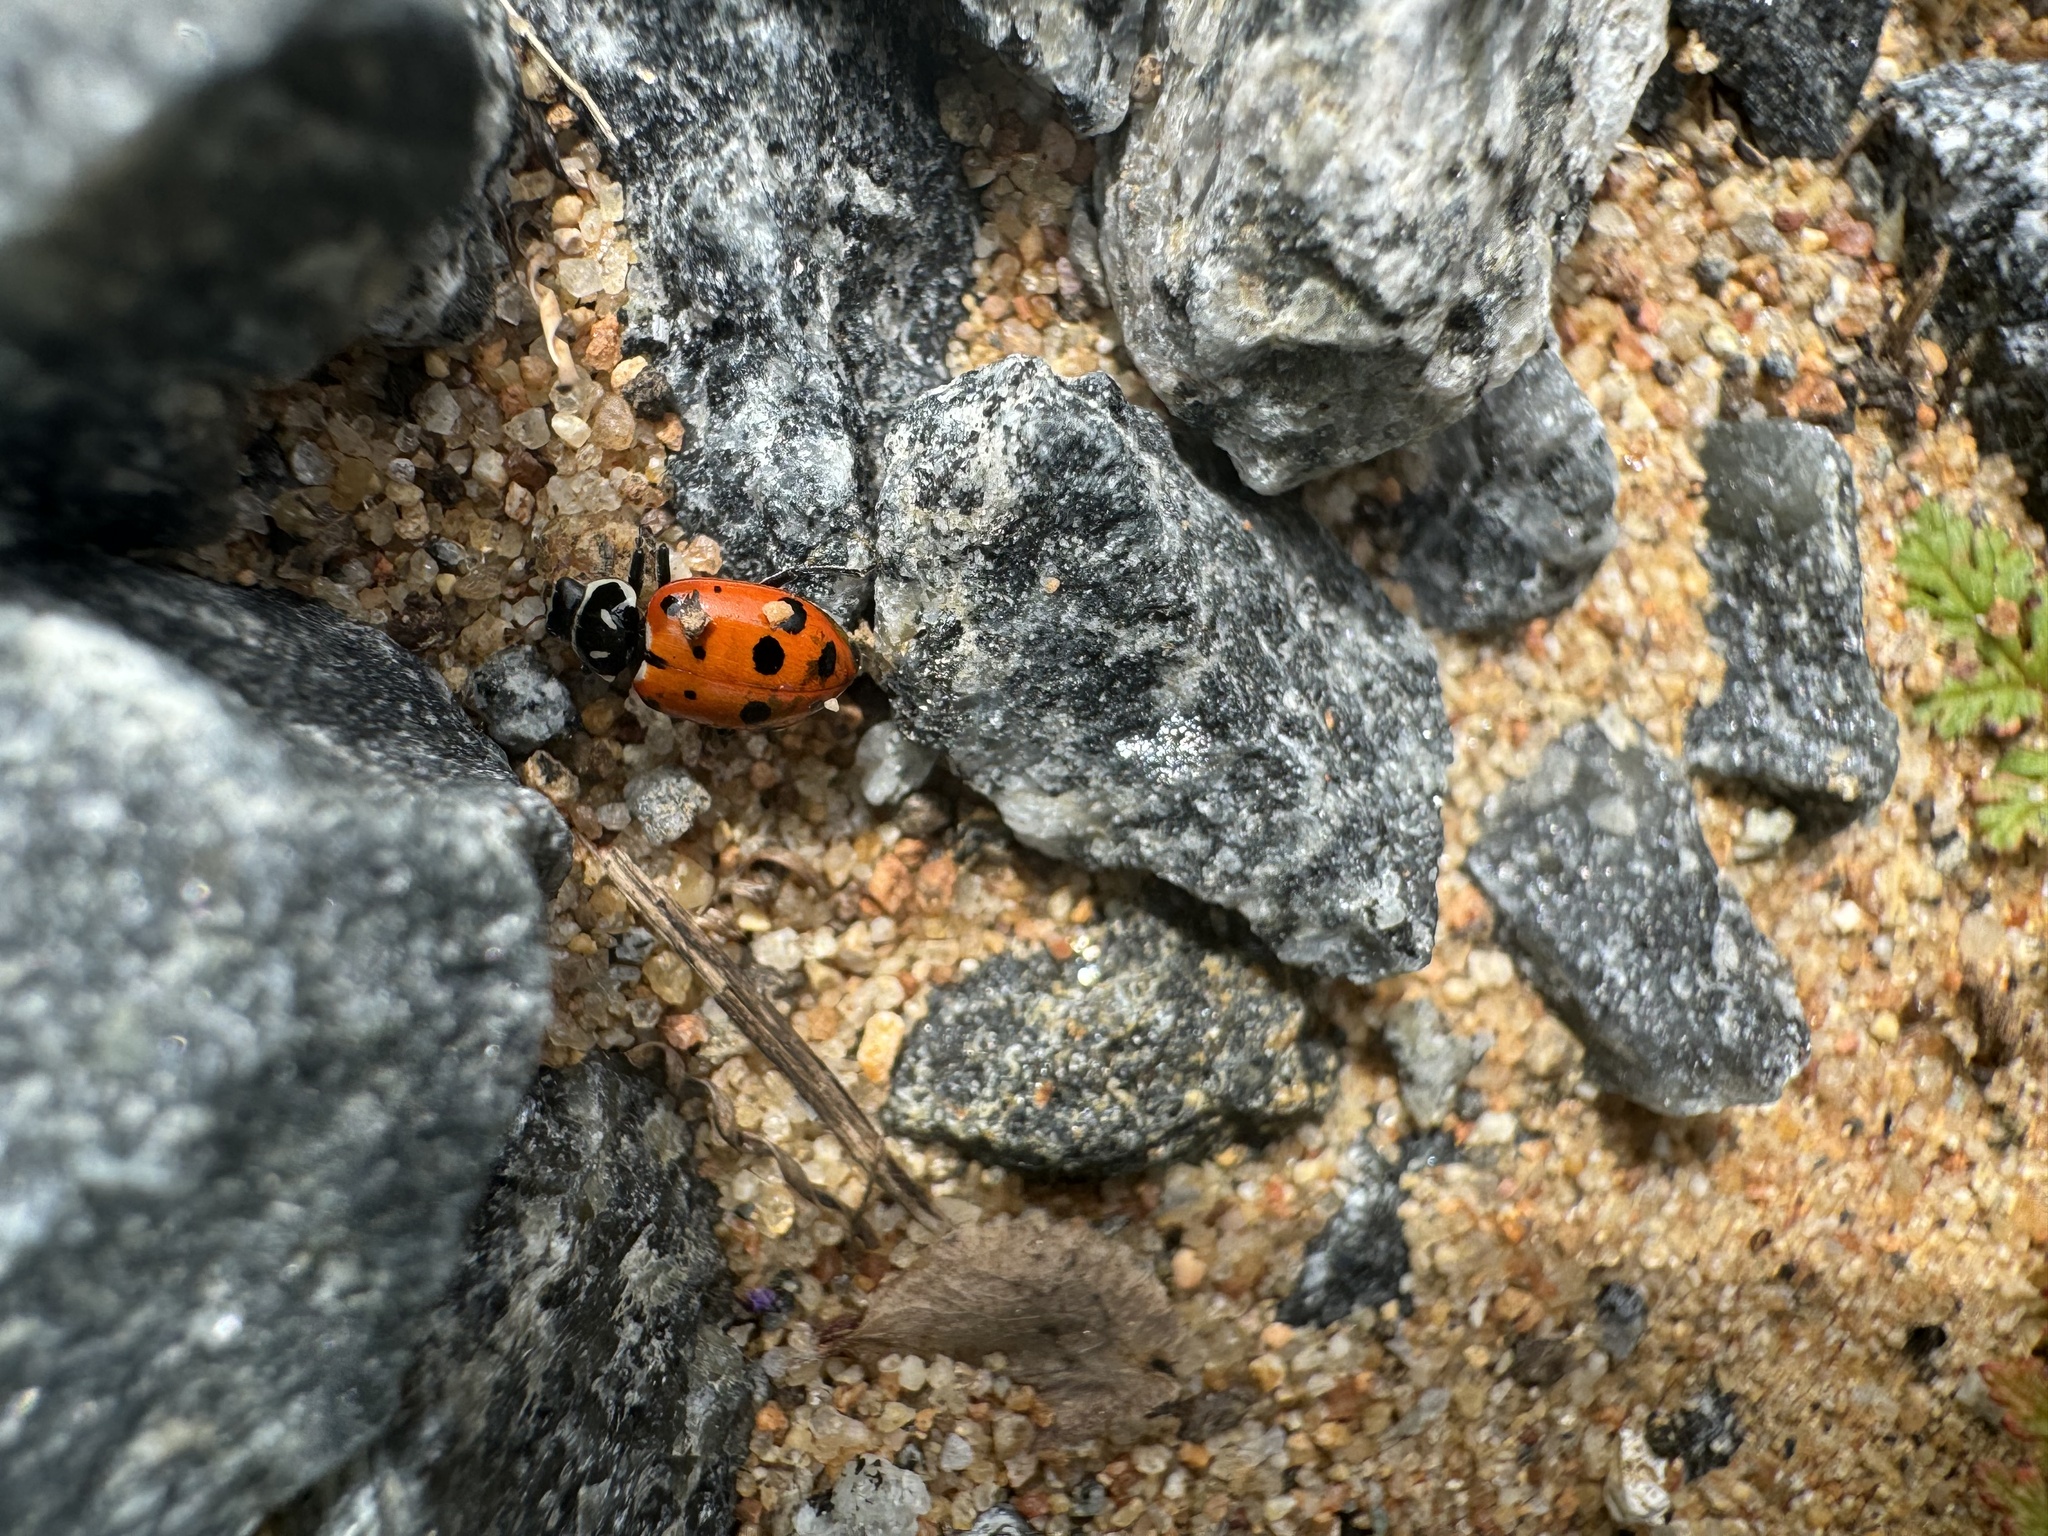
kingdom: Animalia
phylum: Arthropoda
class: Insecta
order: Coleoptera
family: Coccinellidae
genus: Hippodamia
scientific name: Hippodamia convergens
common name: Convergent lady beetle
